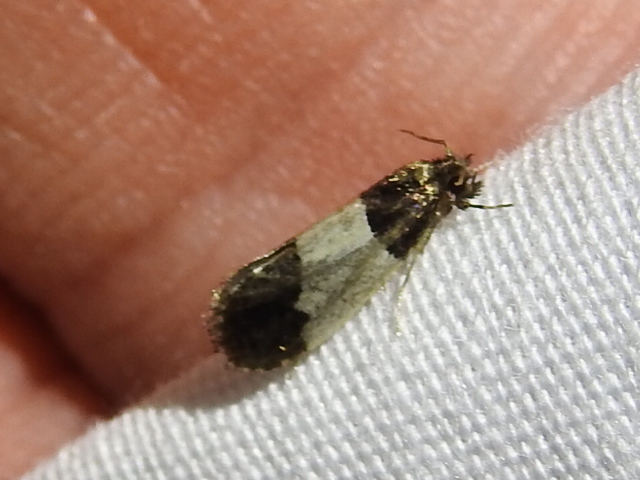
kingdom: Animalia
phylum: Arthropoda
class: Insecta
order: Lepidoptera
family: Psychidae
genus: Kearfottia
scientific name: Kearfottia albifasciella
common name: White-patched kearfottia
